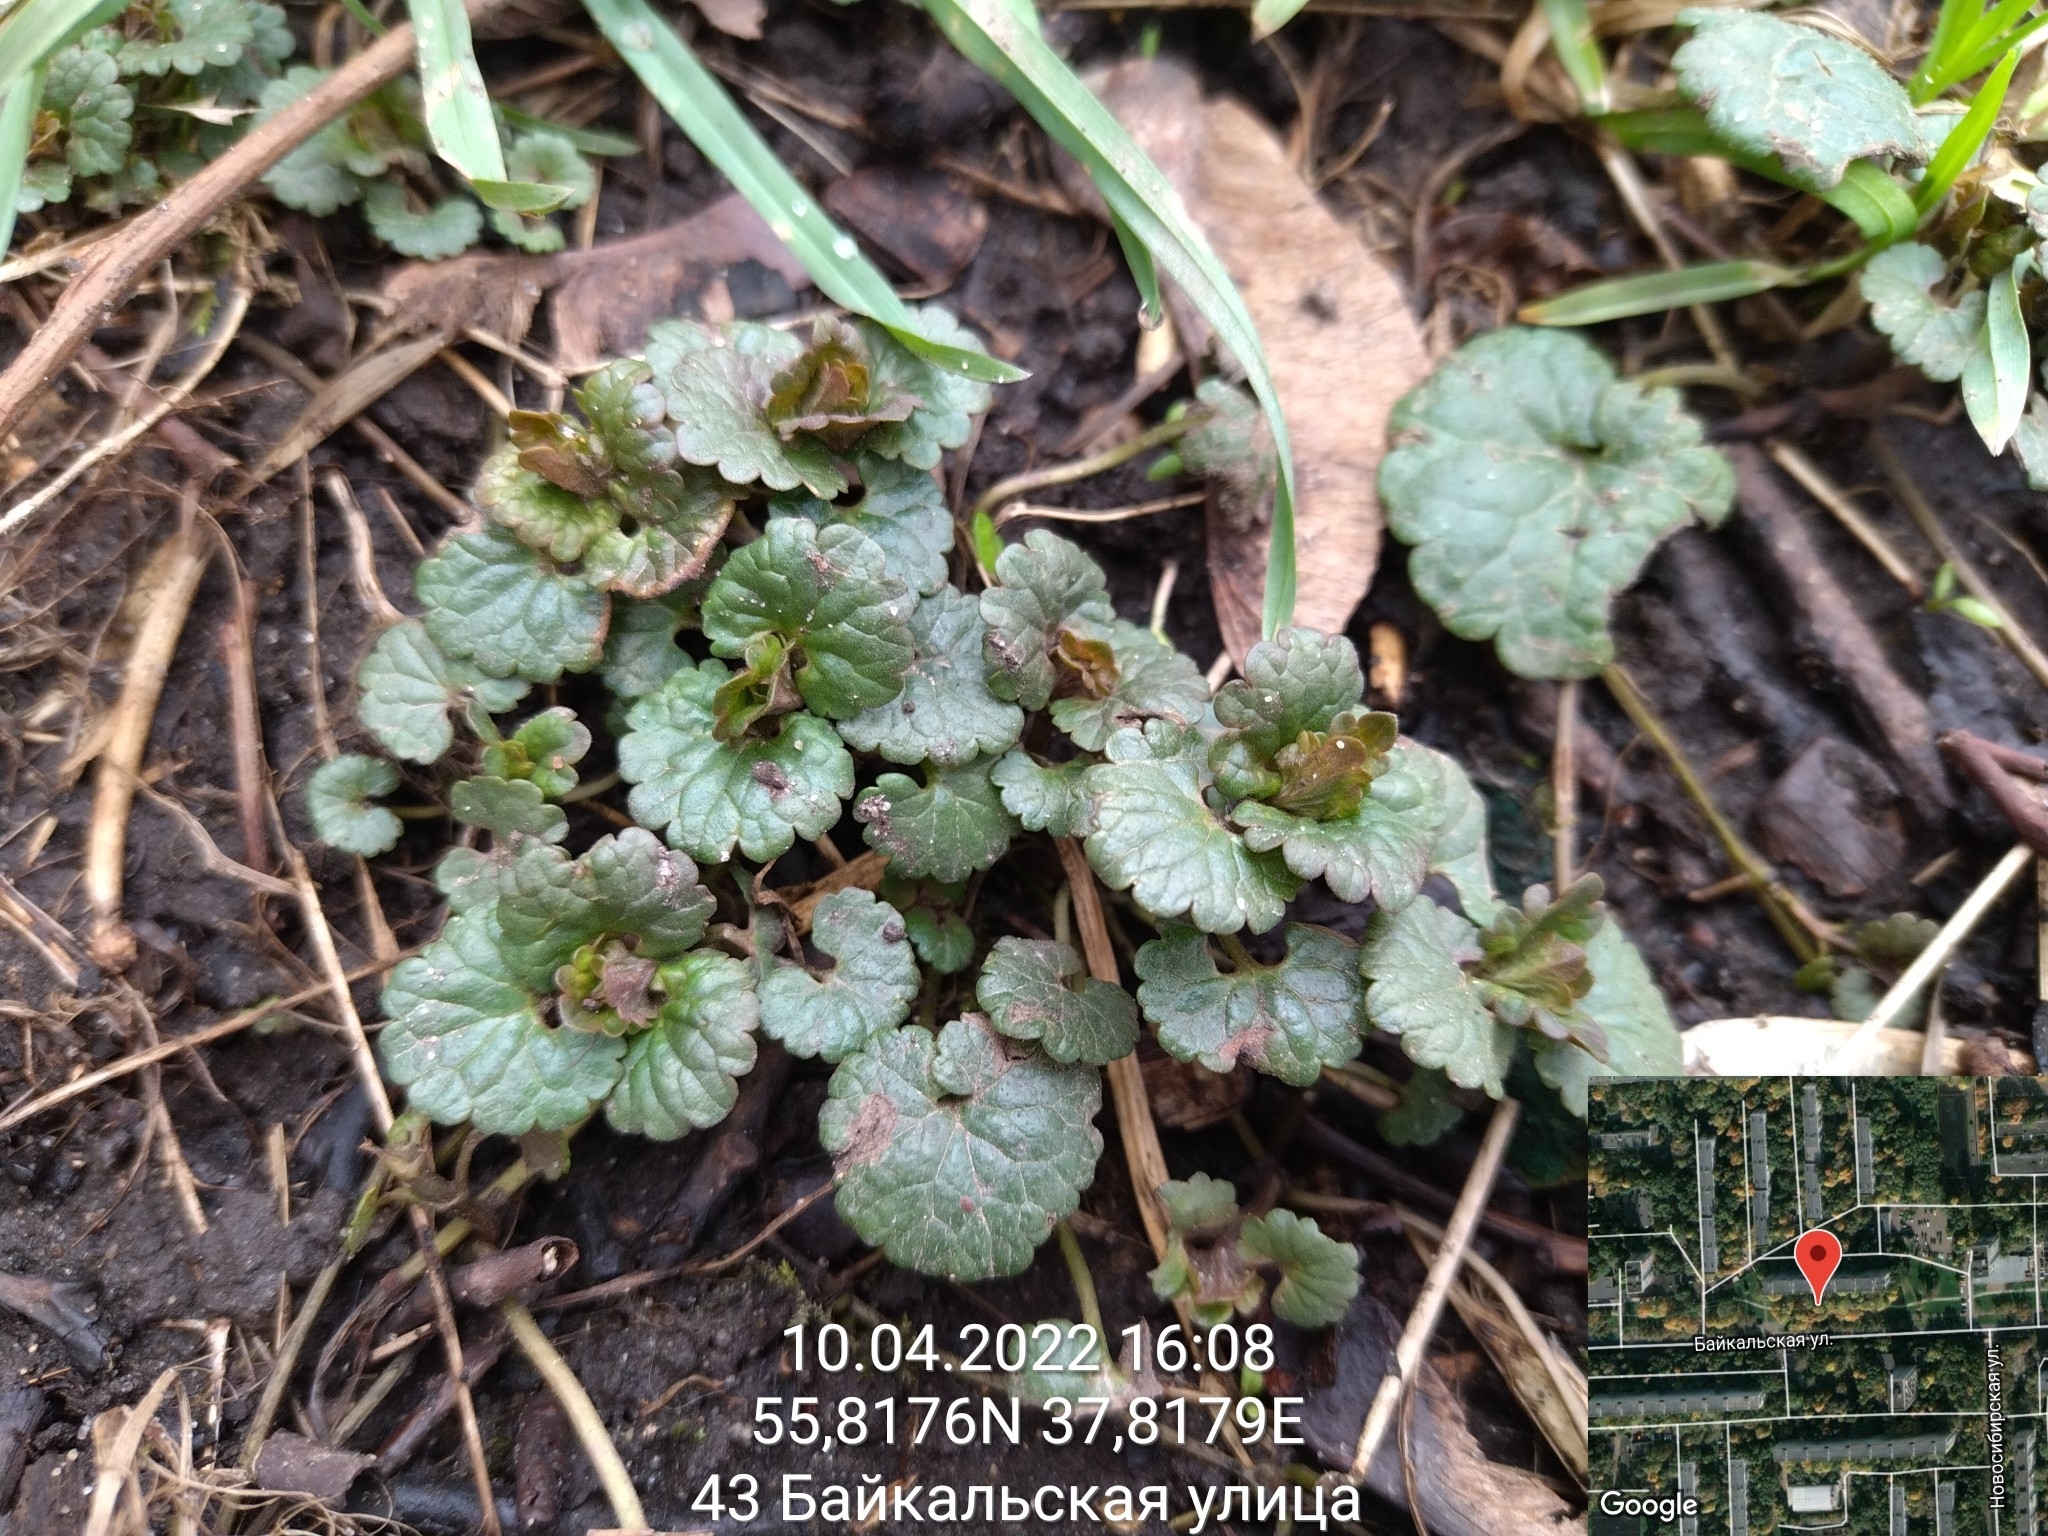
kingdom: Plantae
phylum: Tracheophyta
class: Magnoliopsida
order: Lamiales
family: Lamiaceae
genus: Glechoma
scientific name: Glechoma hederacea
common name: Ground ivy
